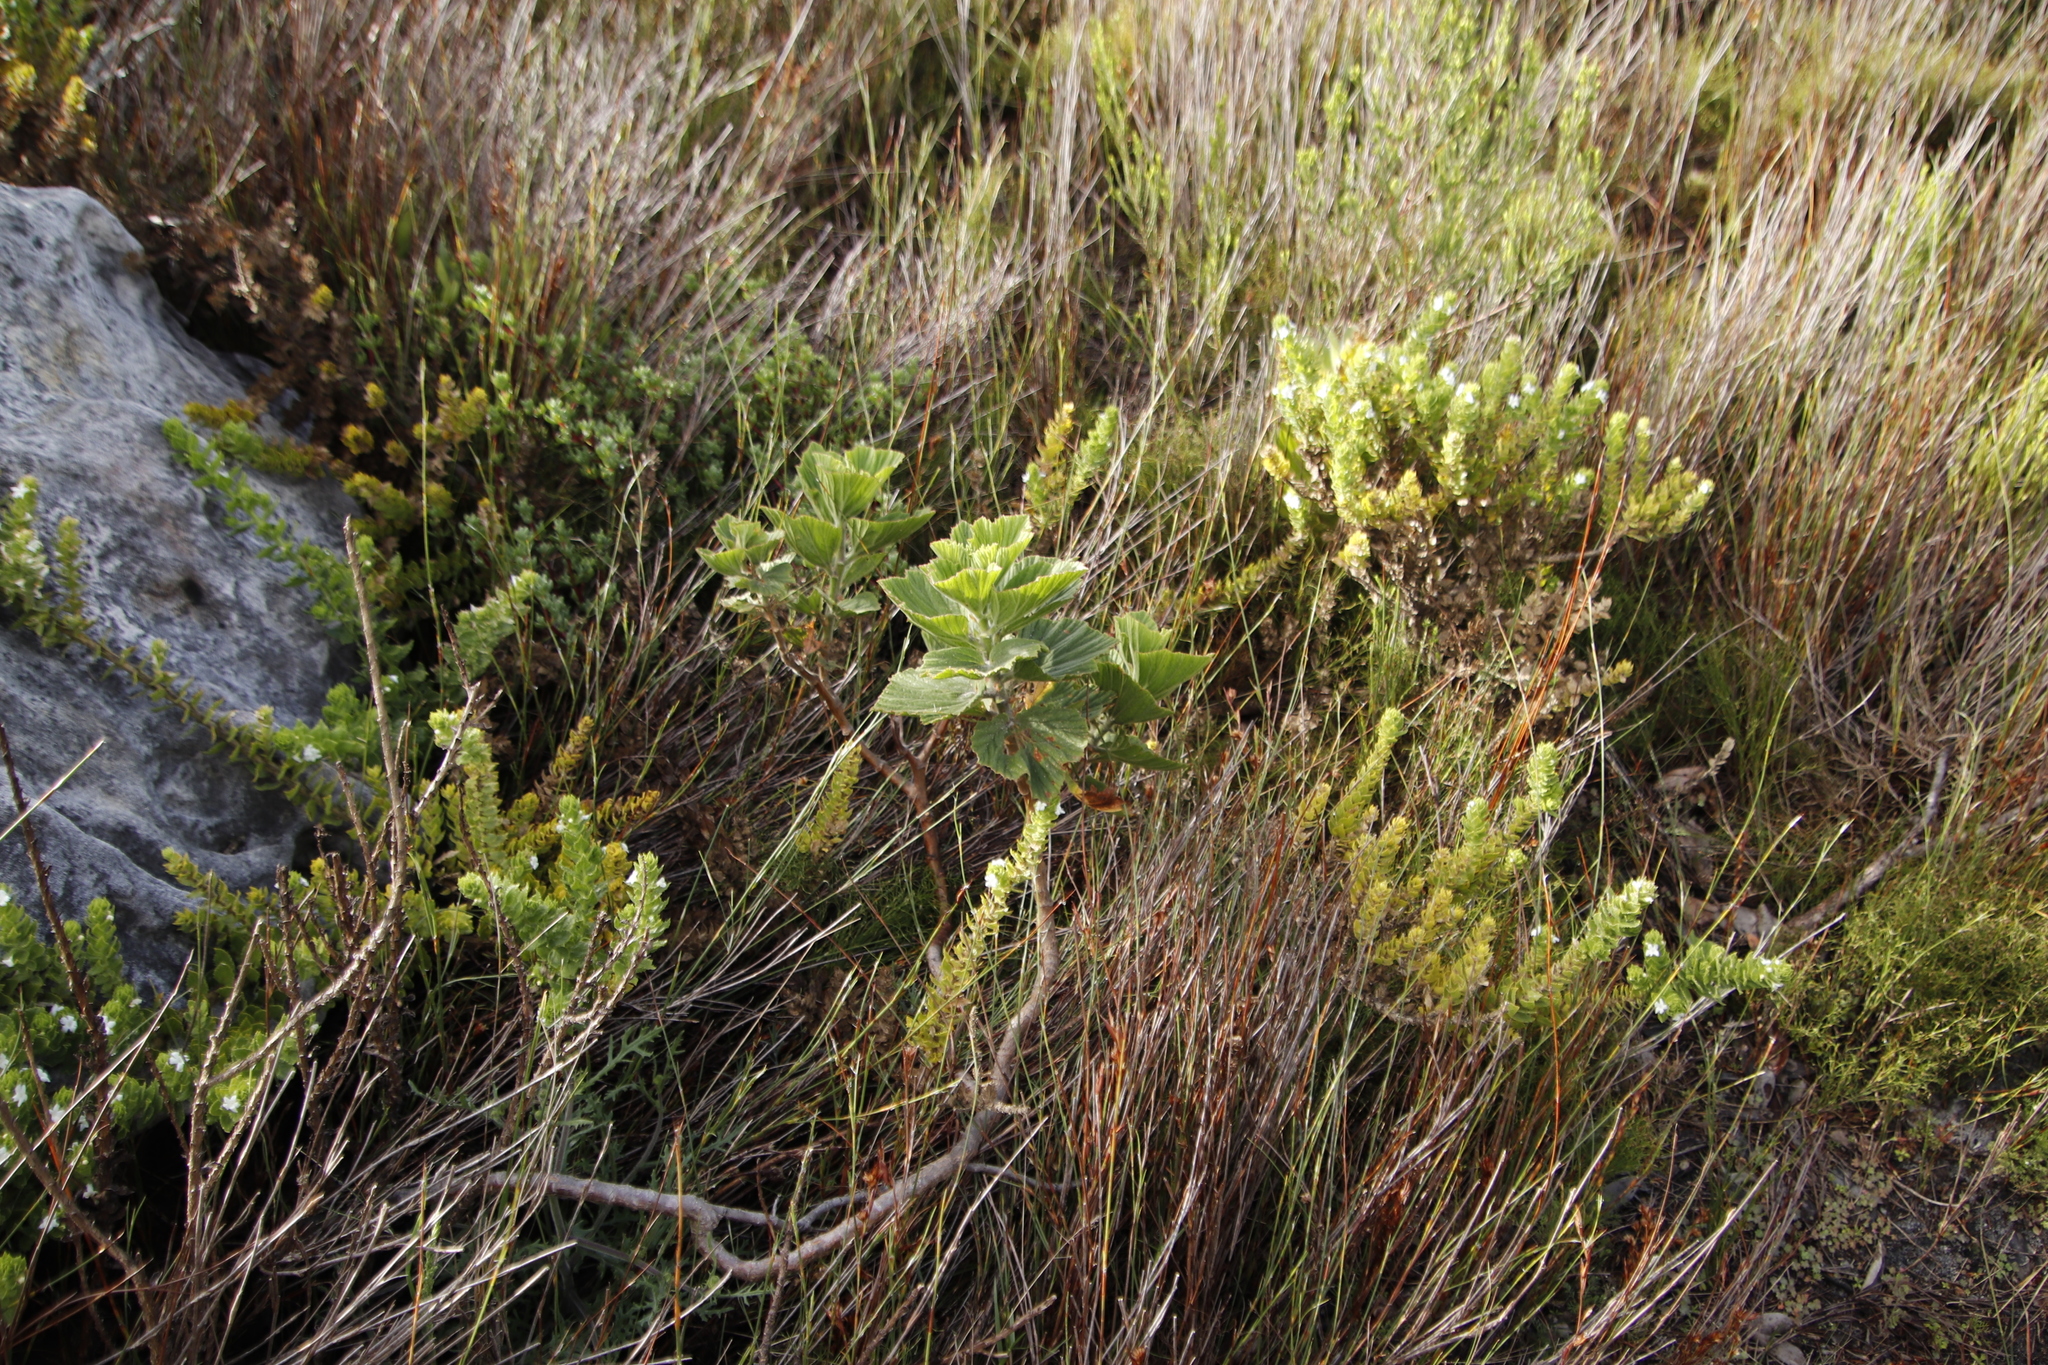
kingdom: Plantae
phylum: Tracheophyta
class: Magnoliopsida
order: Geraniales
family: Geraniaceae
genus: Pelargonium
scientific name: Pelargonium cucullatum
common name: Tree pelargonium
